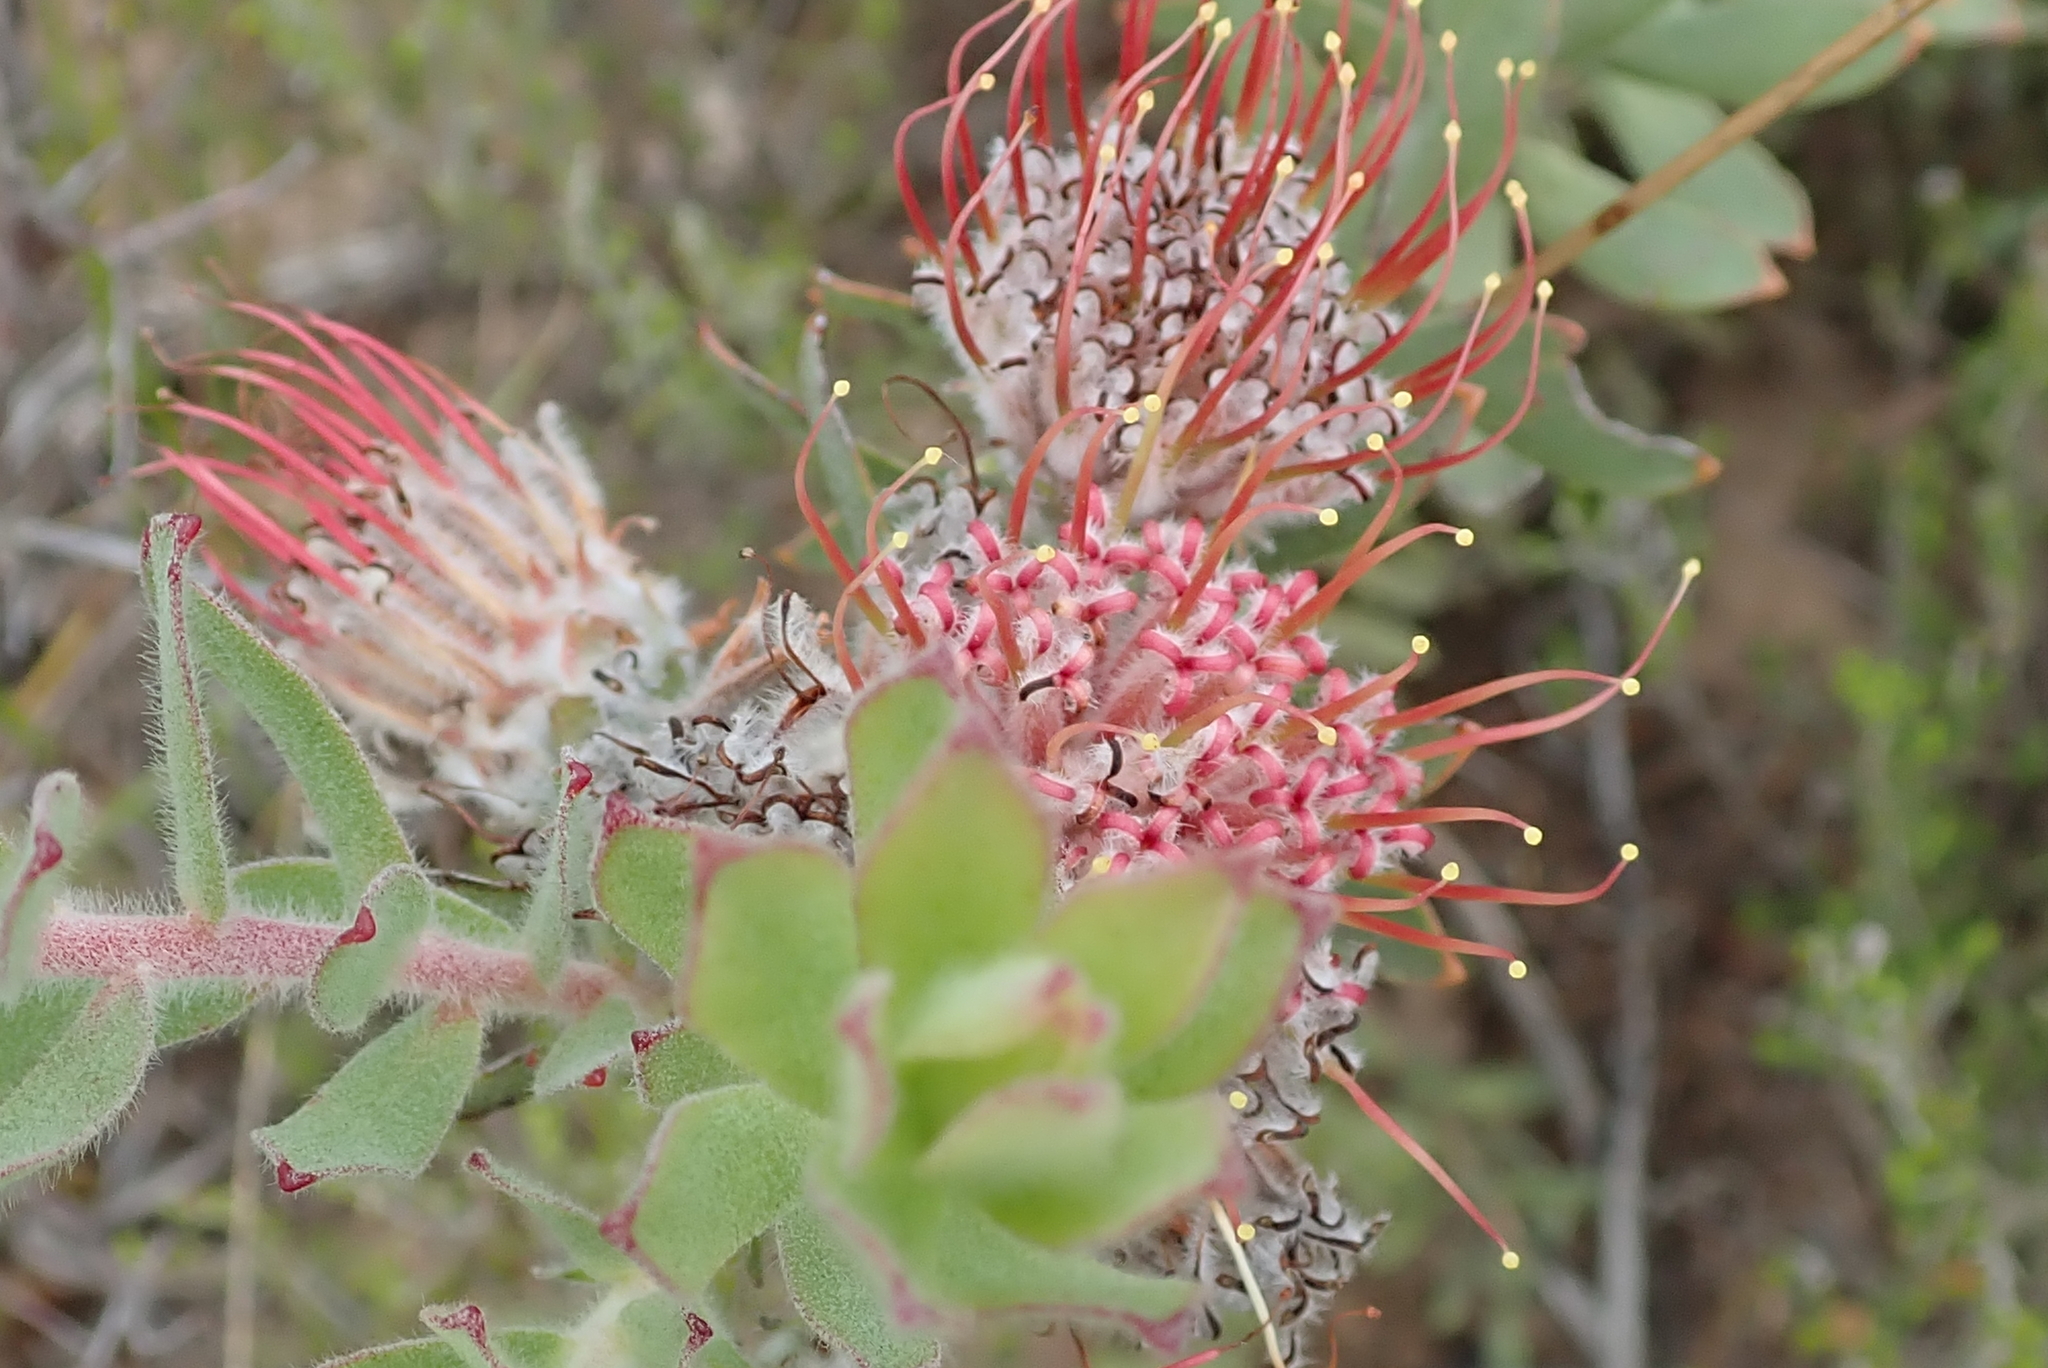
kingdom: Plantae
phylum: Tracheophyta
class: Magnoliopsida
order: Proteales
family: Proteaceae
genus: Leucospermum
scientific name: Leucospermum calligerum
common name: Arid pincushion
